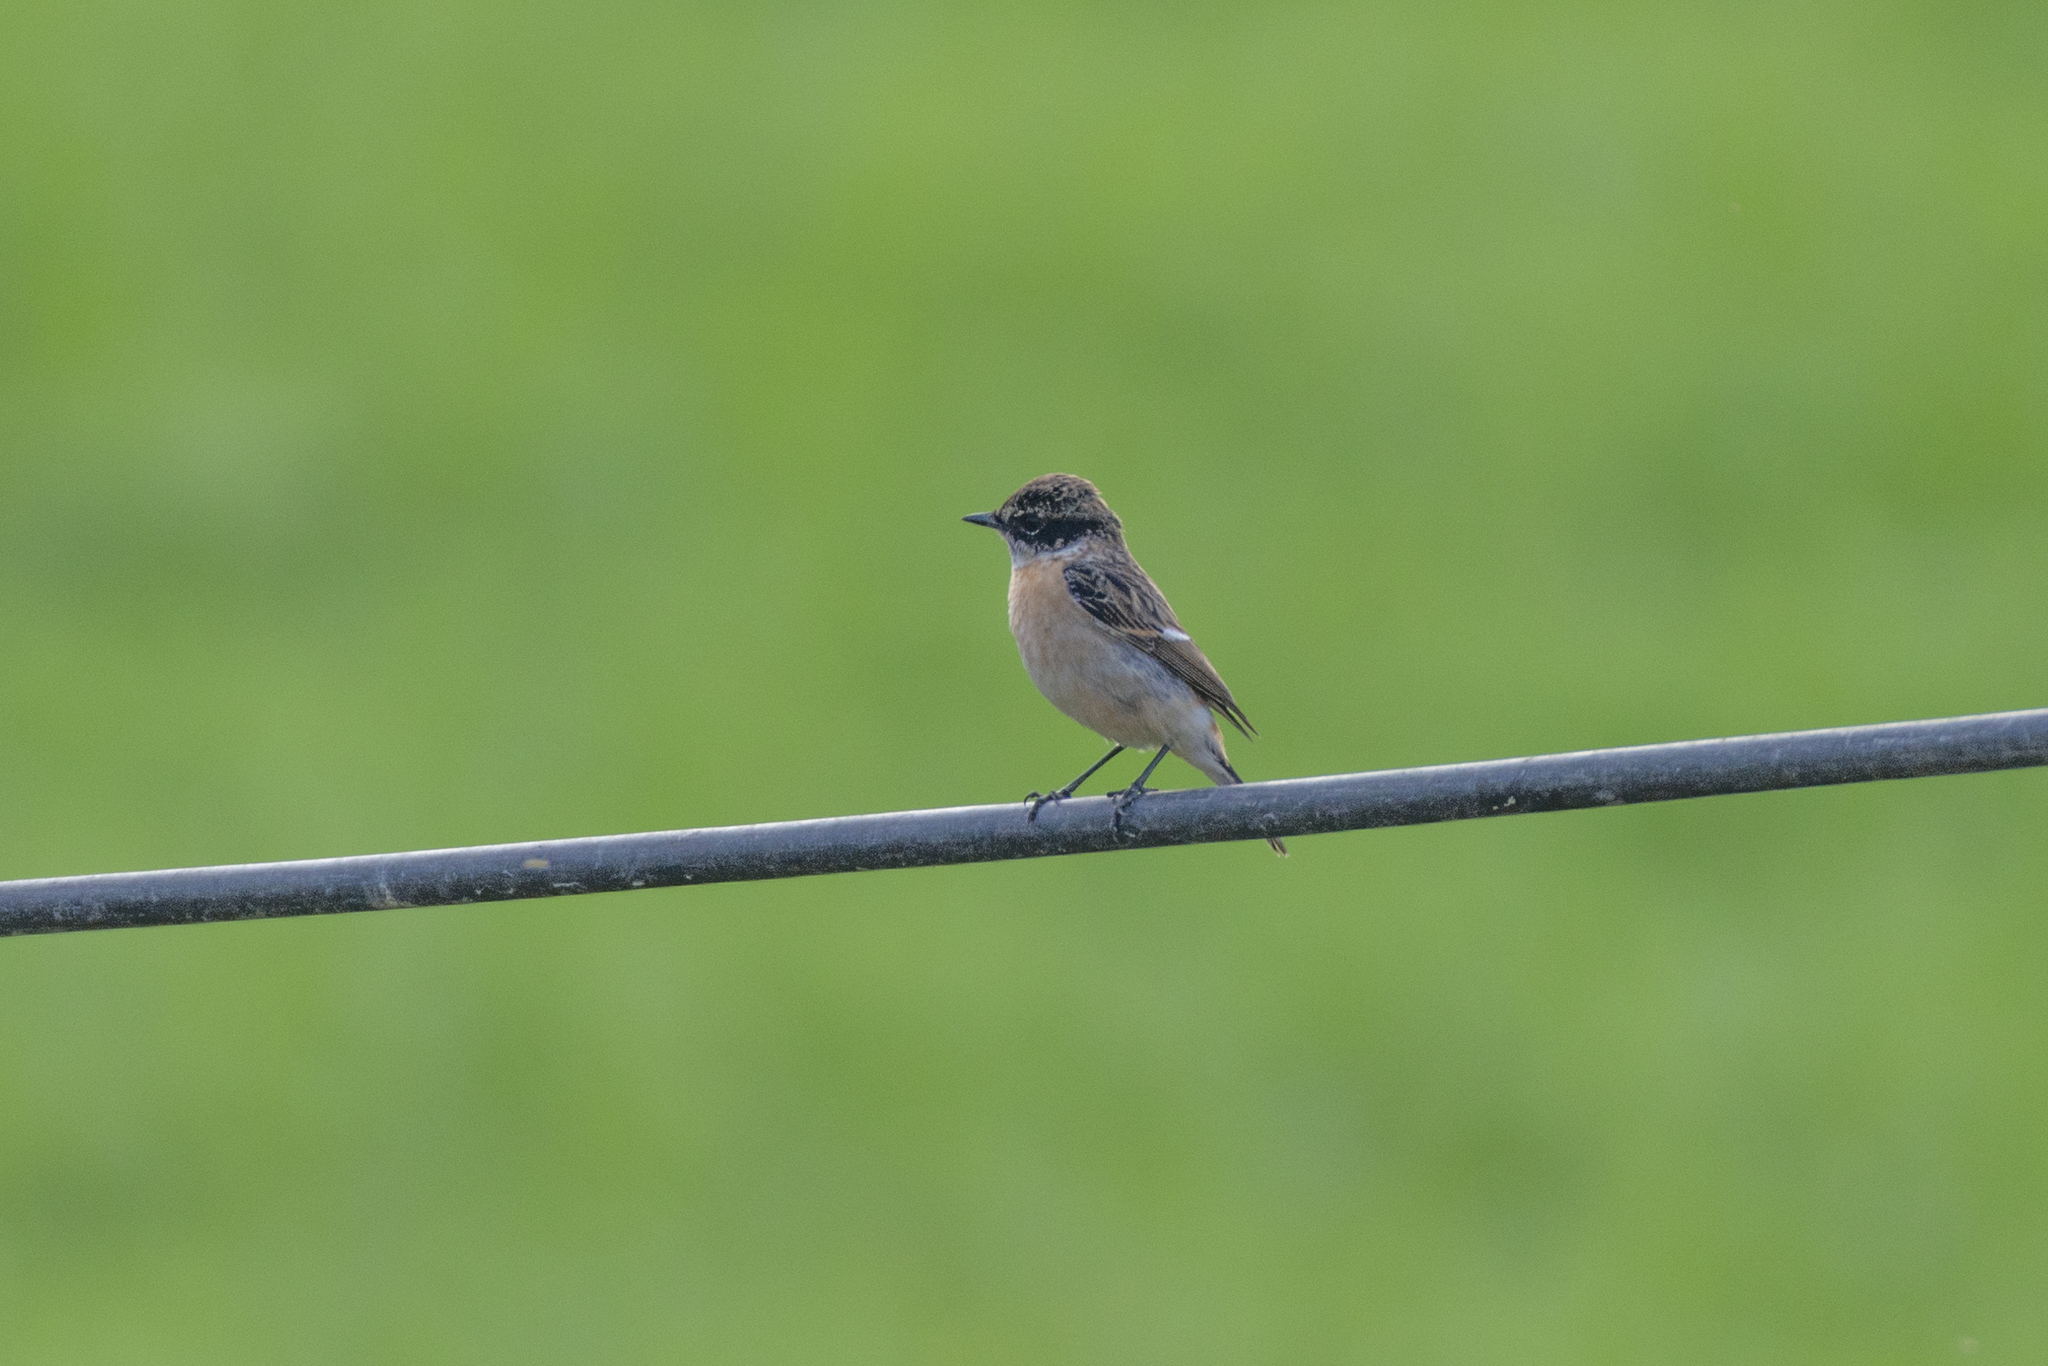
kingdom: Animalia
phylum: Chordata
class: Aves
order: Passeriformes
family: Muscicapidae
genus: Saxicola
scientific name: Saxicola maurus
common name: Siberian stonechat
